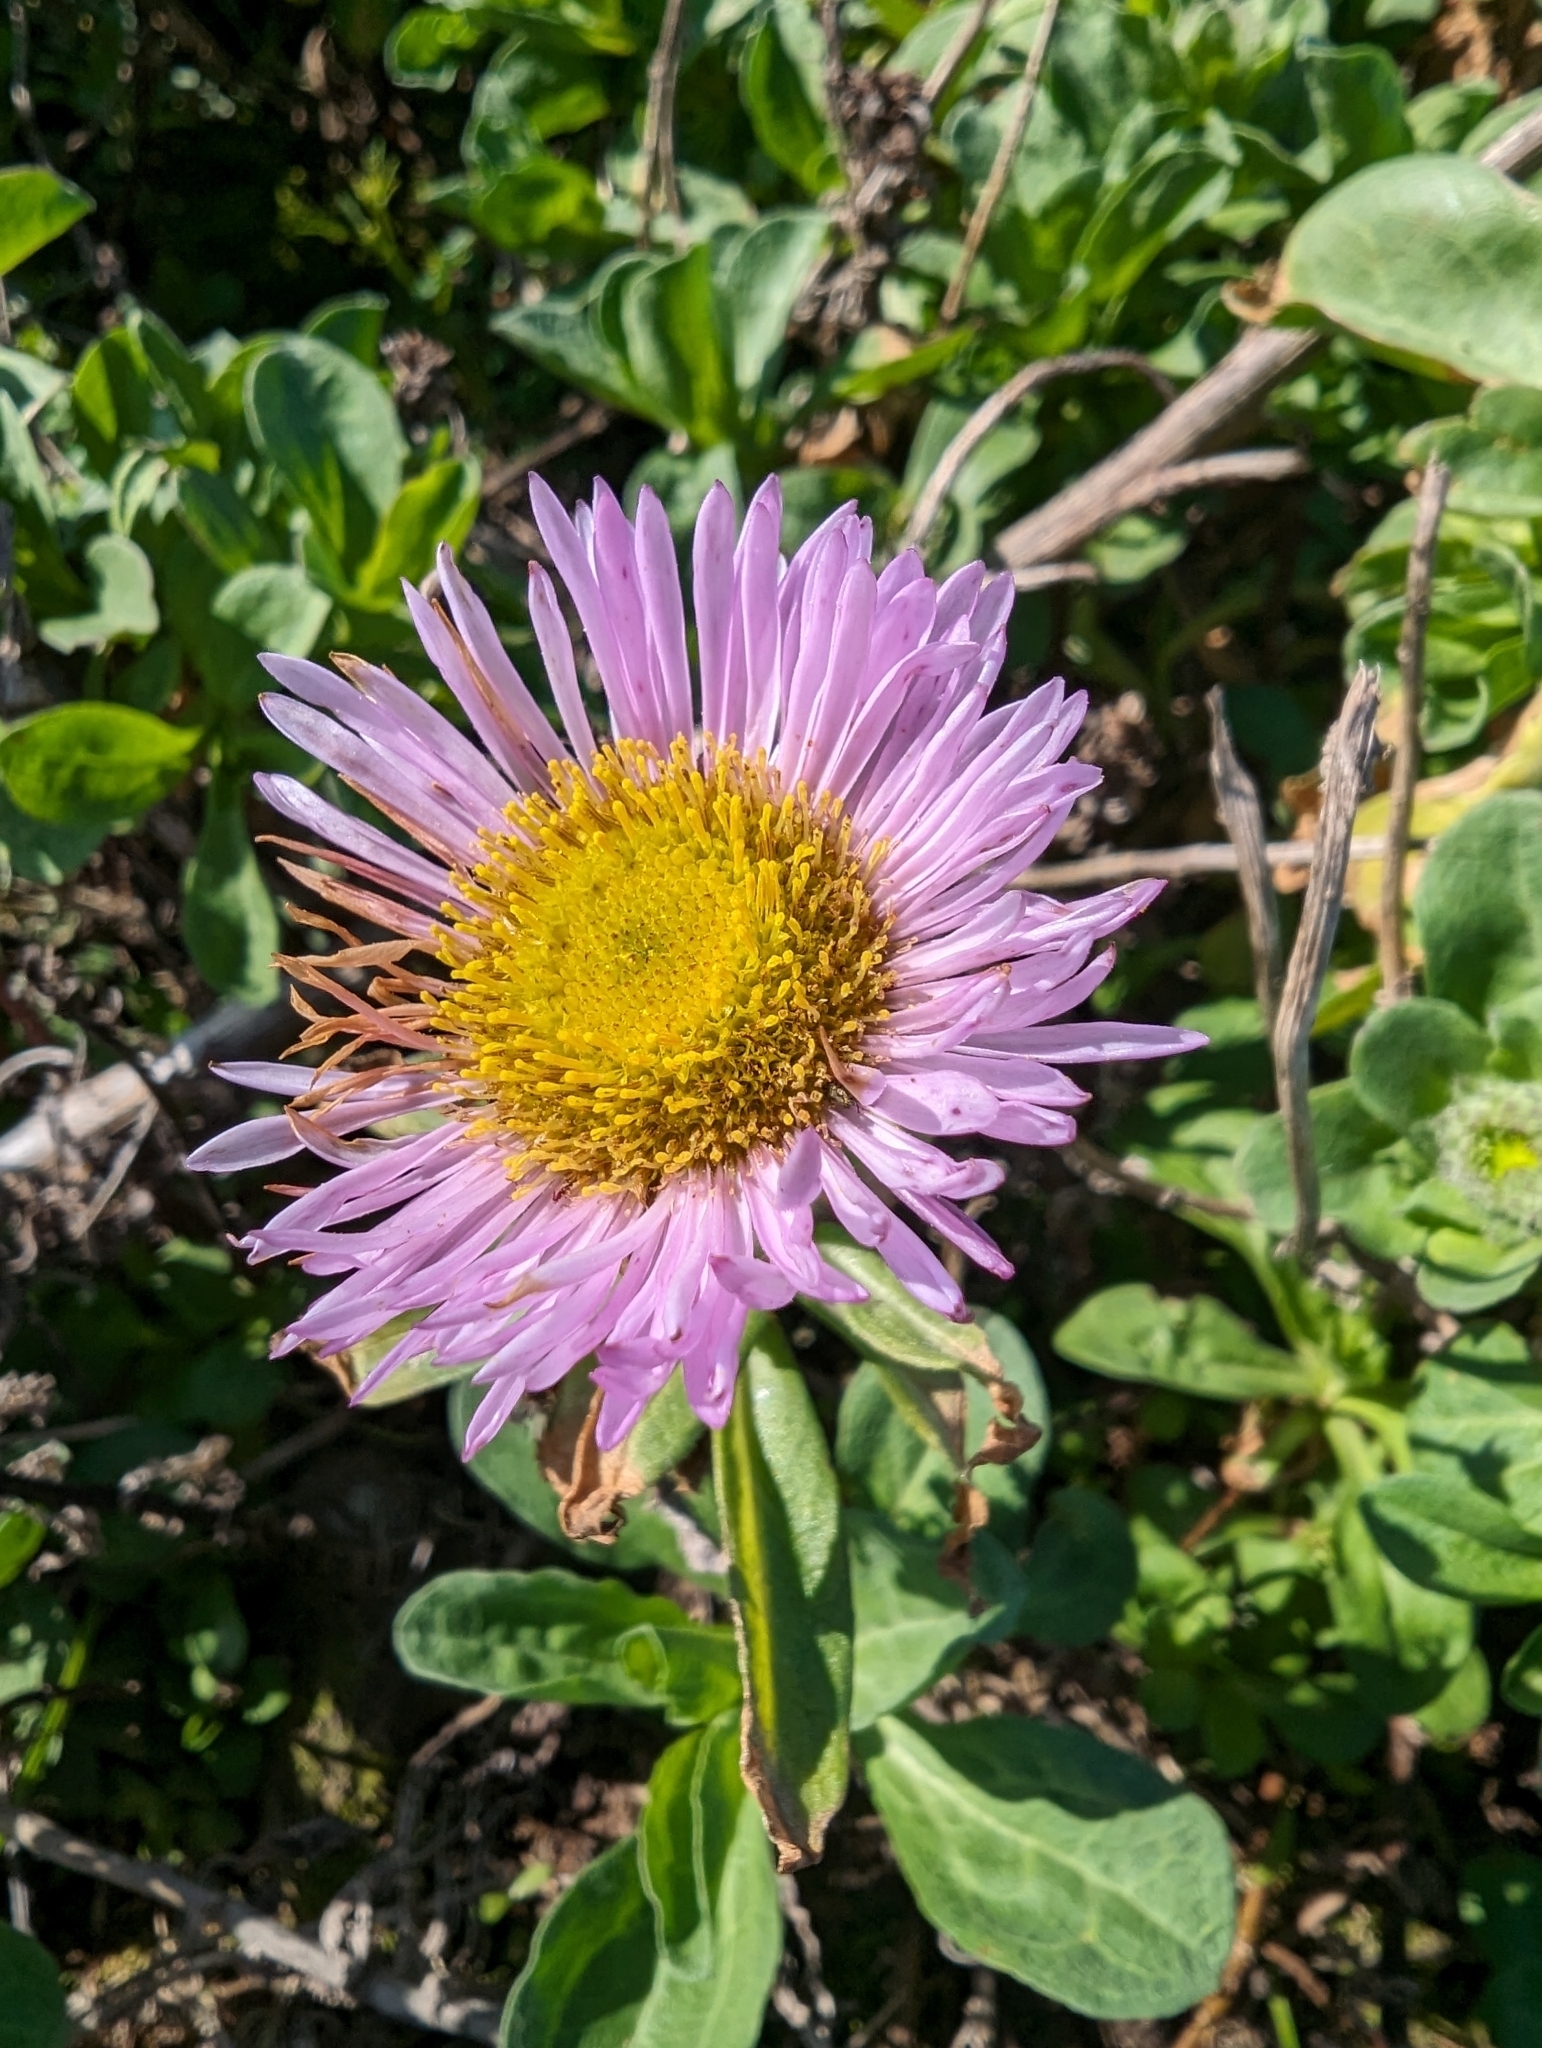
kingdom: Plantae
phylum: Tracheophyta
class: Magnoliopsida
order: Asterales
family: Asteraceae
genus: Erigeron
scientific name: Erigeron glaucus
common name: Seaside daisy
